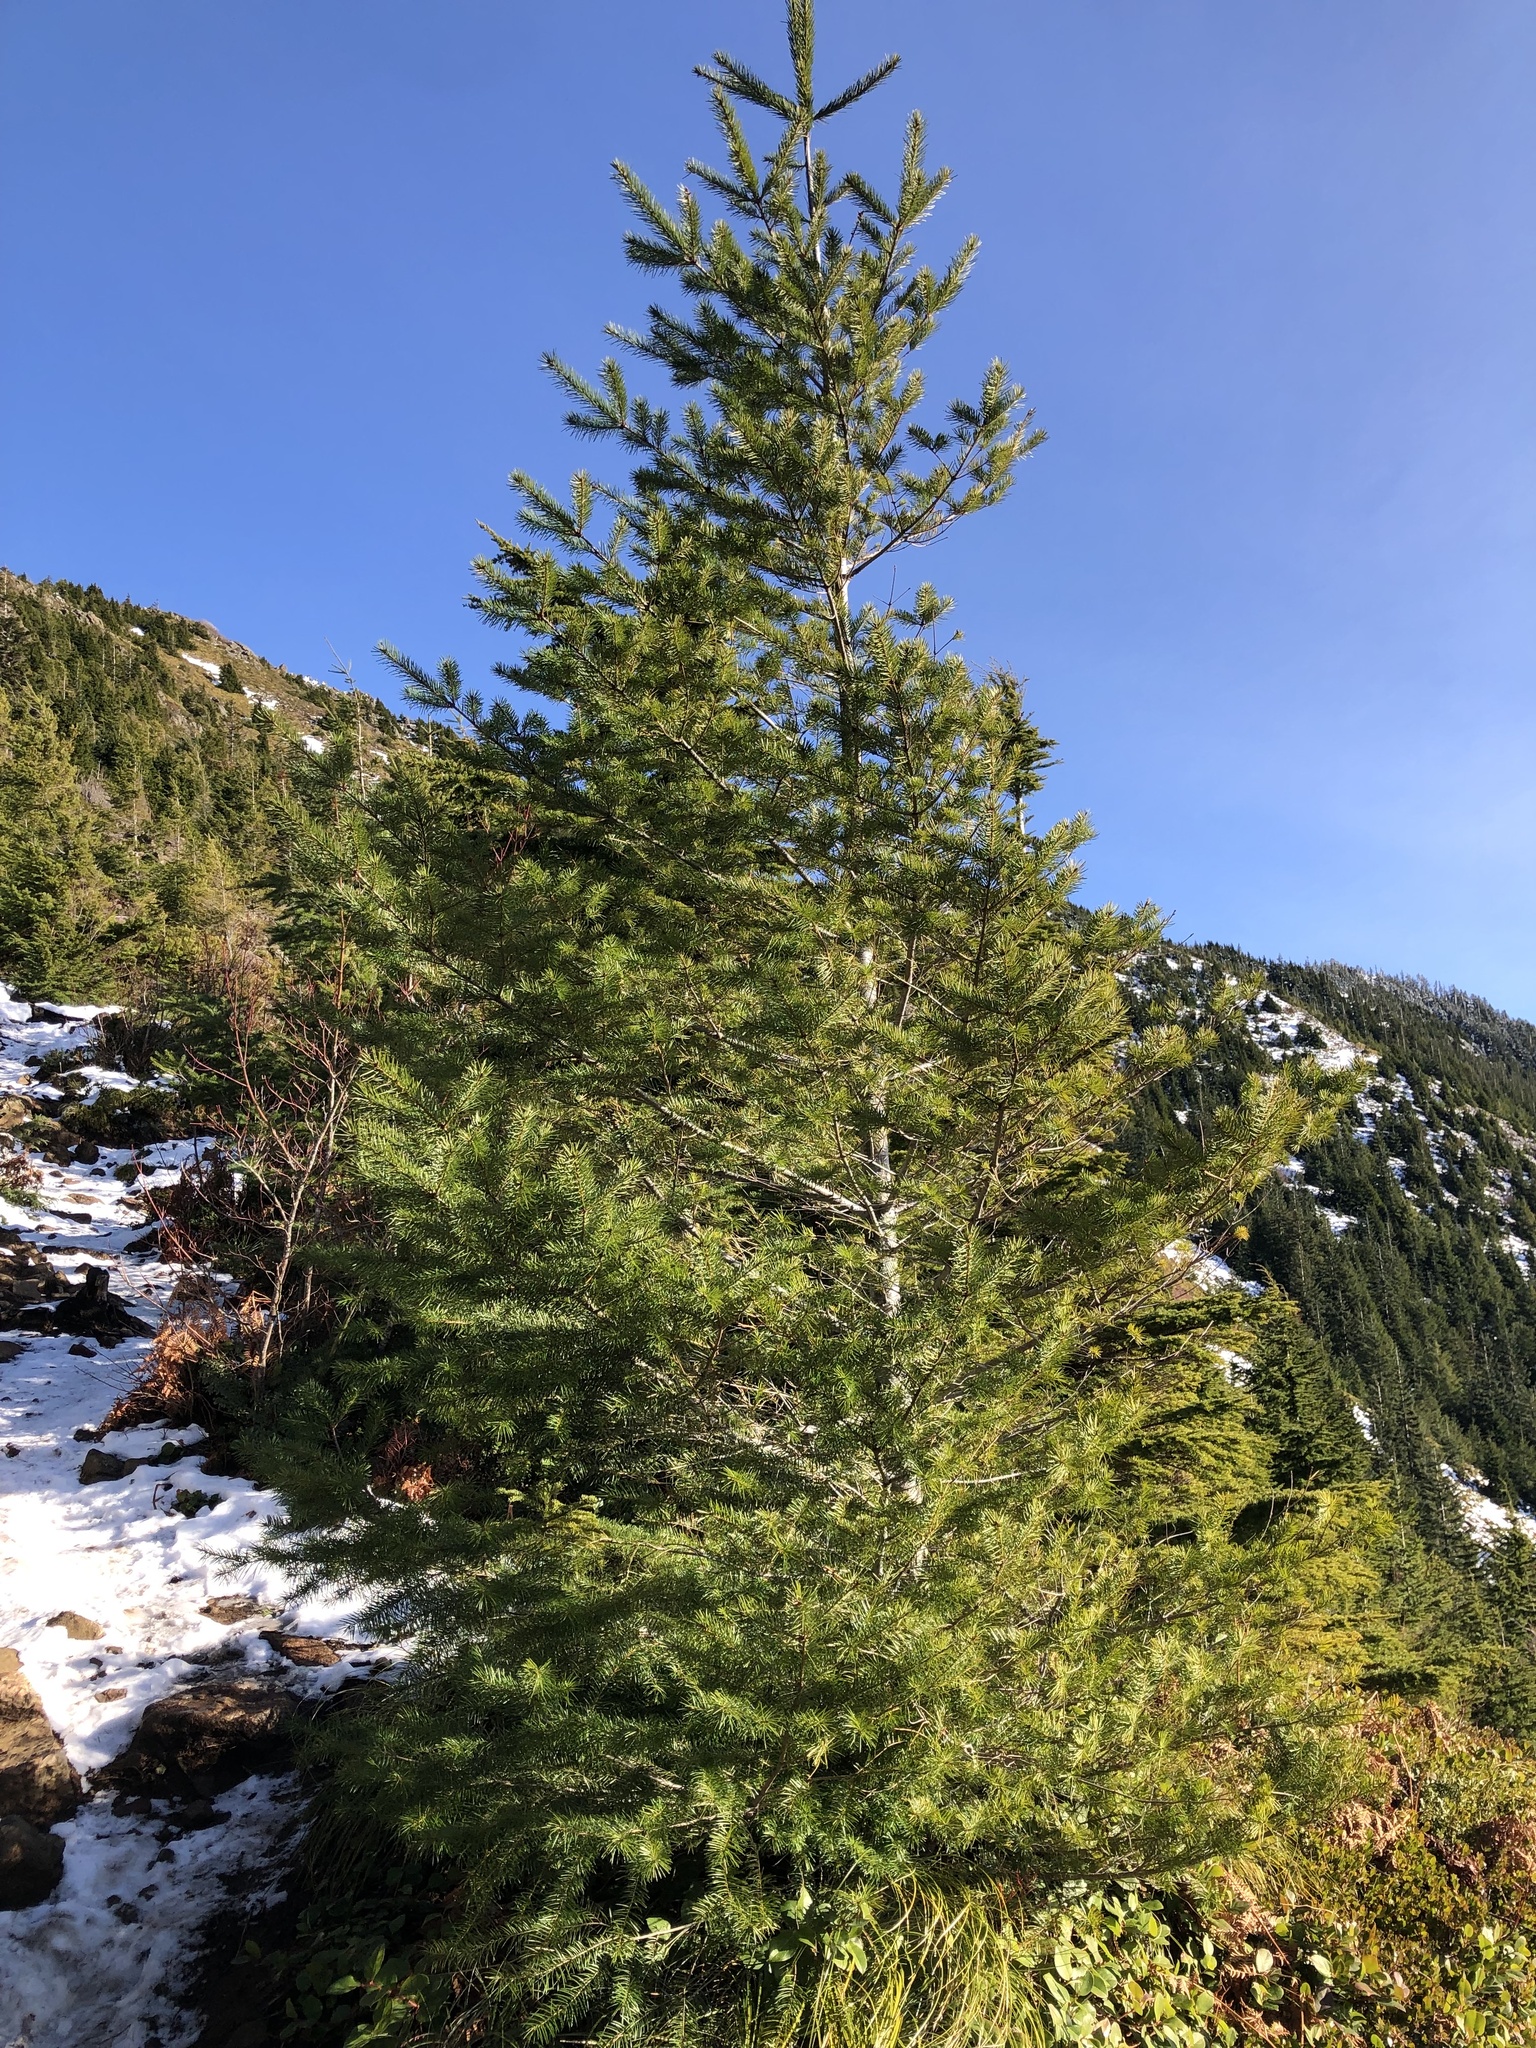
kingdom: Plantae
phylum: Tracheophyta
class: Pinopsida
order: Pinales
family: Pinaceae
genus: Pseudotsuga
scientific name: Pseudotsuga menziesii
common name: Douglas fir
